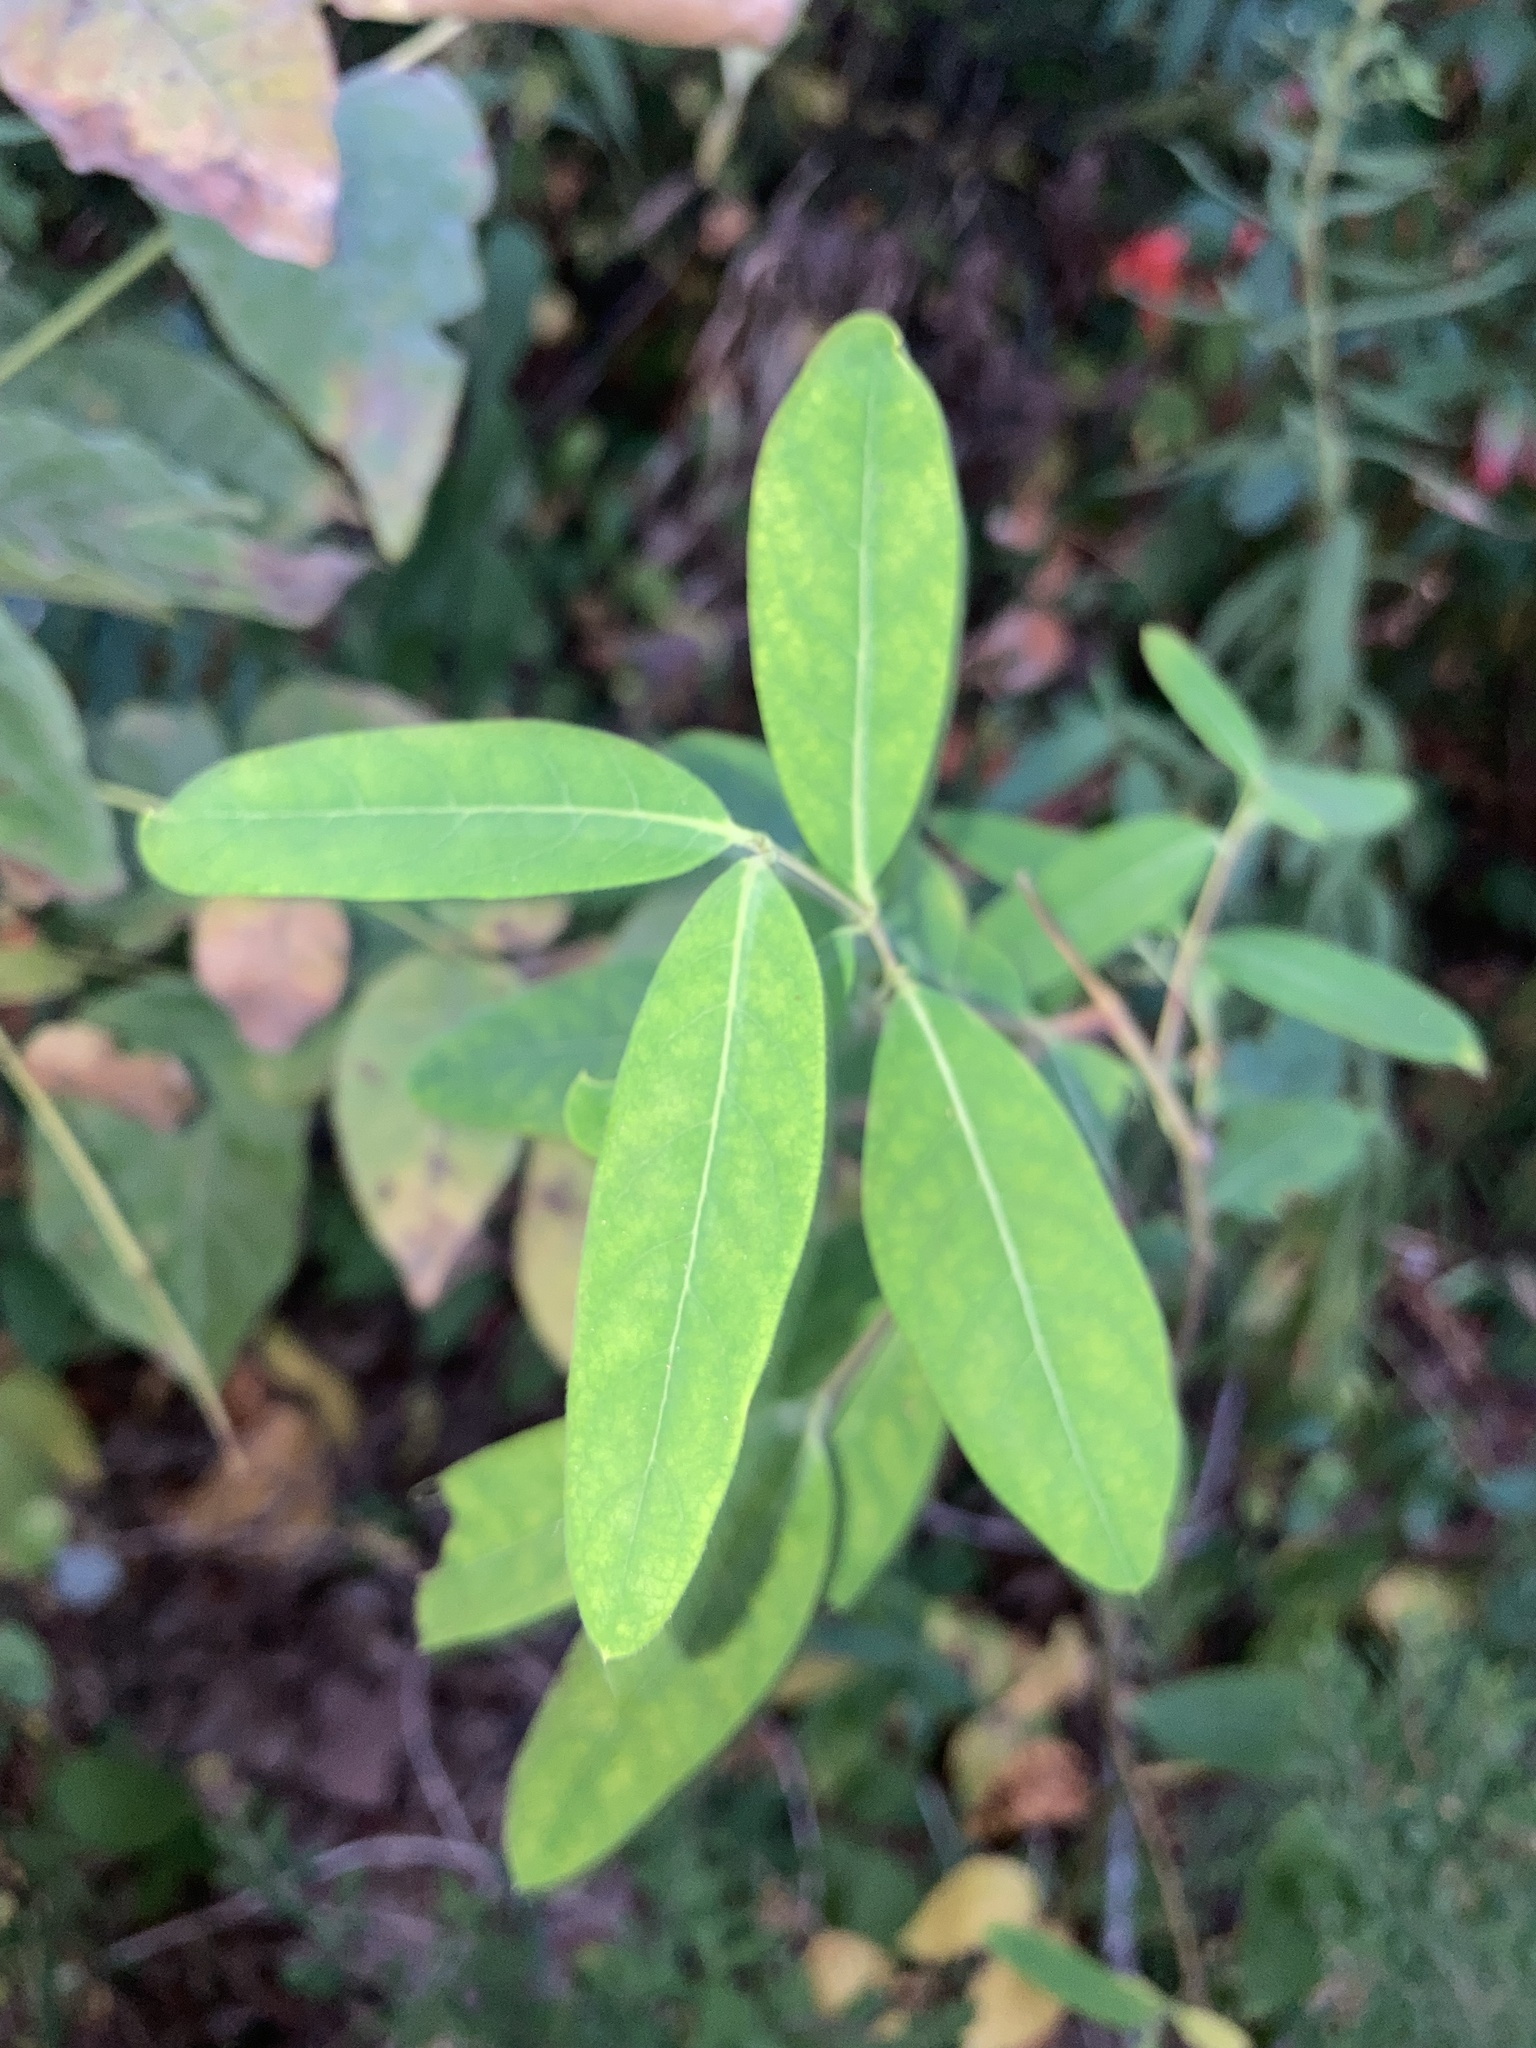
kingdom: Plantae
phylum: Tracheophyta
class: Magnoliopsida
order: Malpighiales
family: Hypericaceae
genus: Triadenum
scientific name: Triadenum walteri
